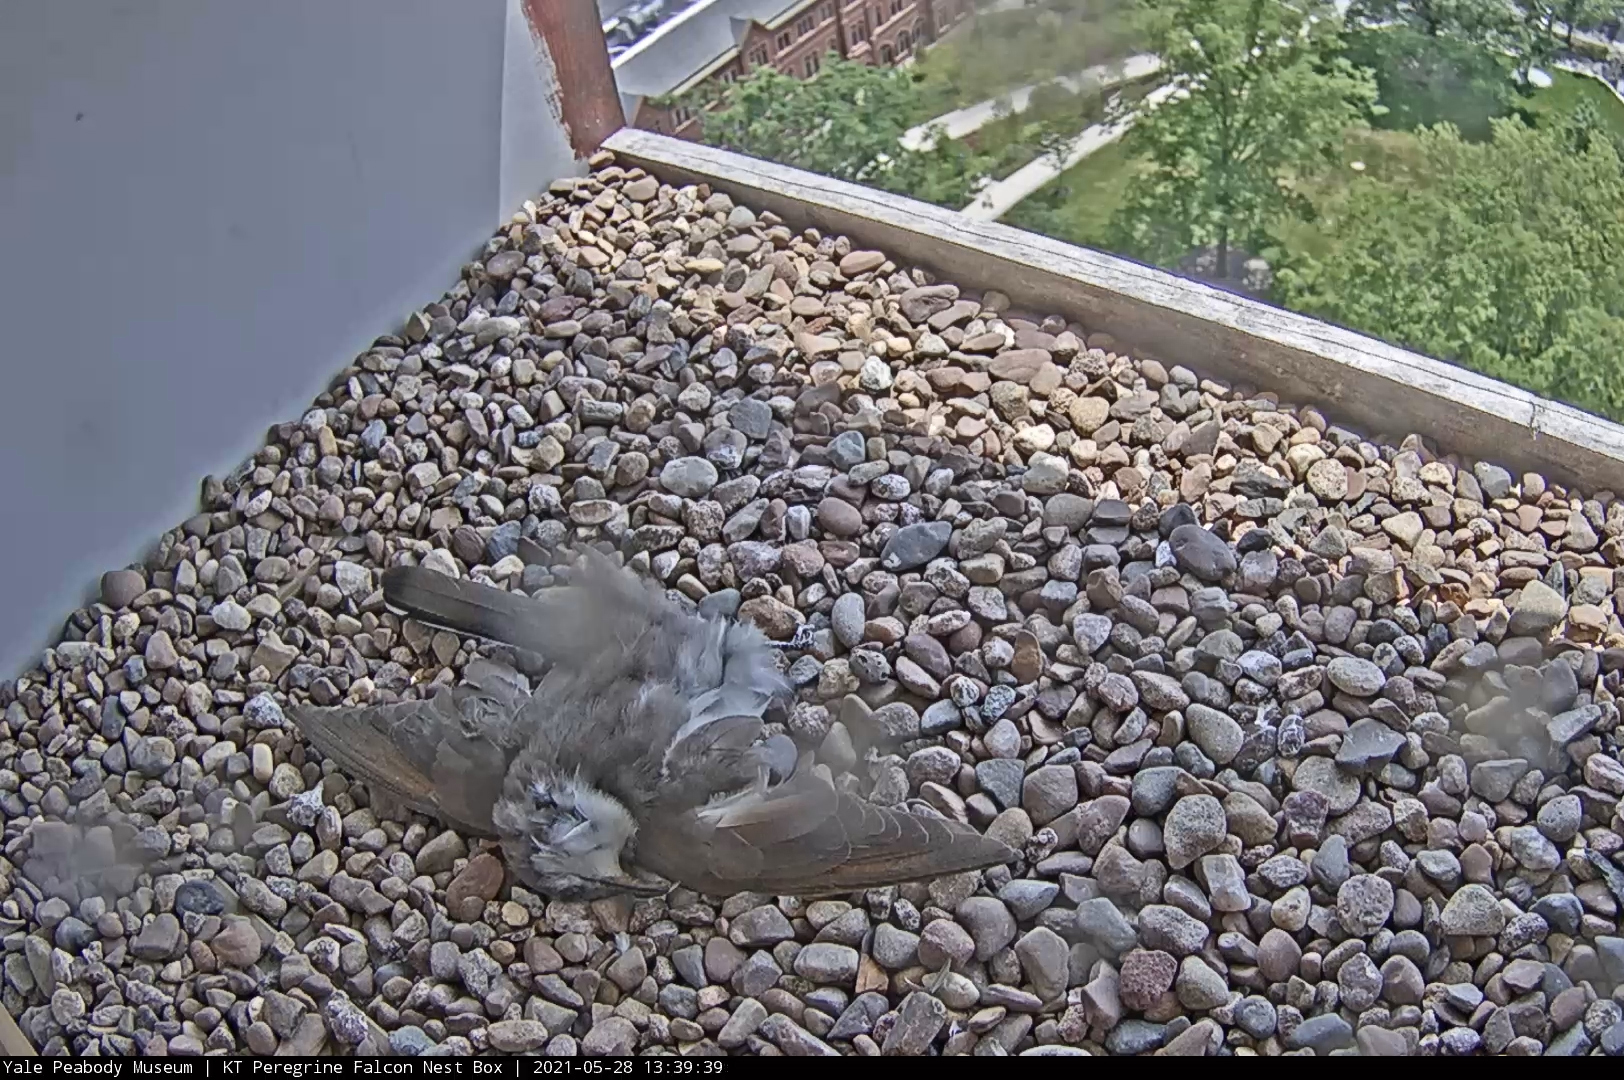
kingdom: Animalia
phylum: Chordata
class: Aves
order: Cuculiformes
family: Cuculidae
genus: Coccyzus
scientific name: Coccyzus americanus
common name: Yellow-billed cuckoo
